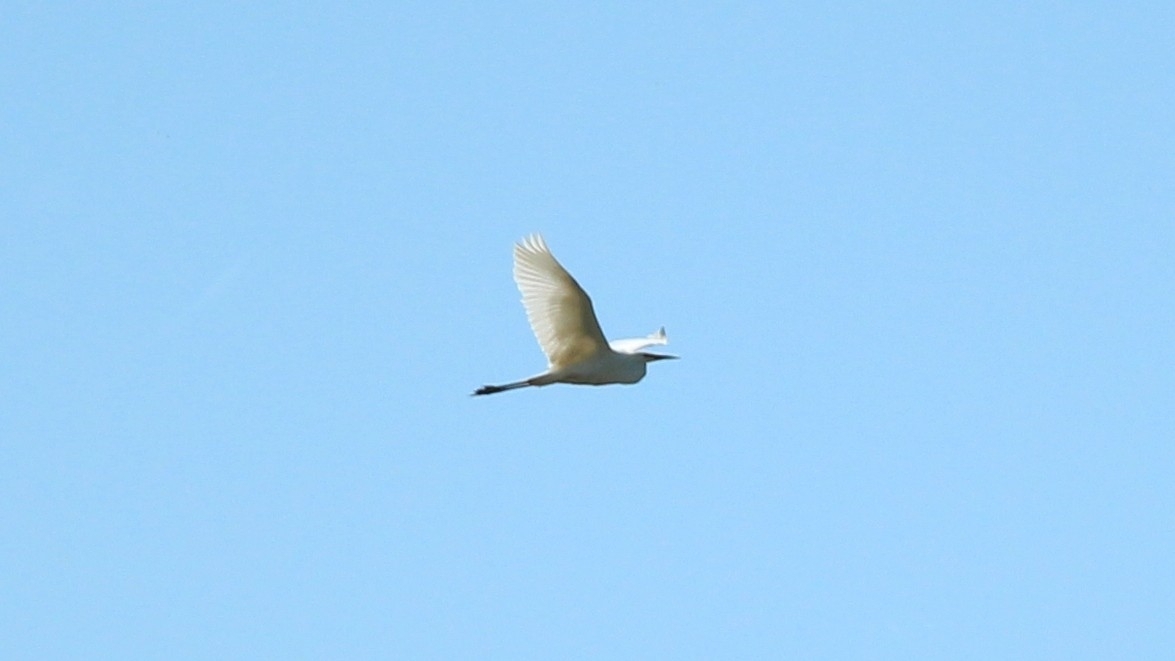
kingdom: Animalia
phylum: Chordata
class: Aves
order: Pelecaniformes
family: Ardeidae
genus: Ardea
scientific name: Ardea alba
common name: Great egret
